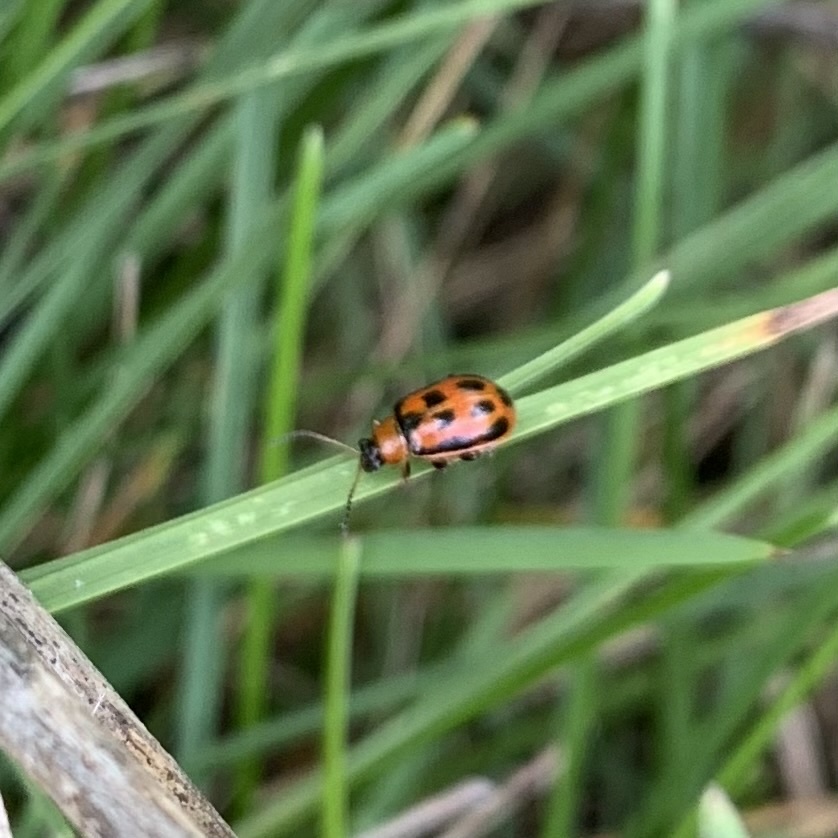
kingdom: Animalia
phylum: Arthropoda
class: Insecta
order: Coleoptera
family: Chrysomelidae
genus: Cerotoma
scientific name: Cerotoma trifurcata
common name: Bean leaf beetle
